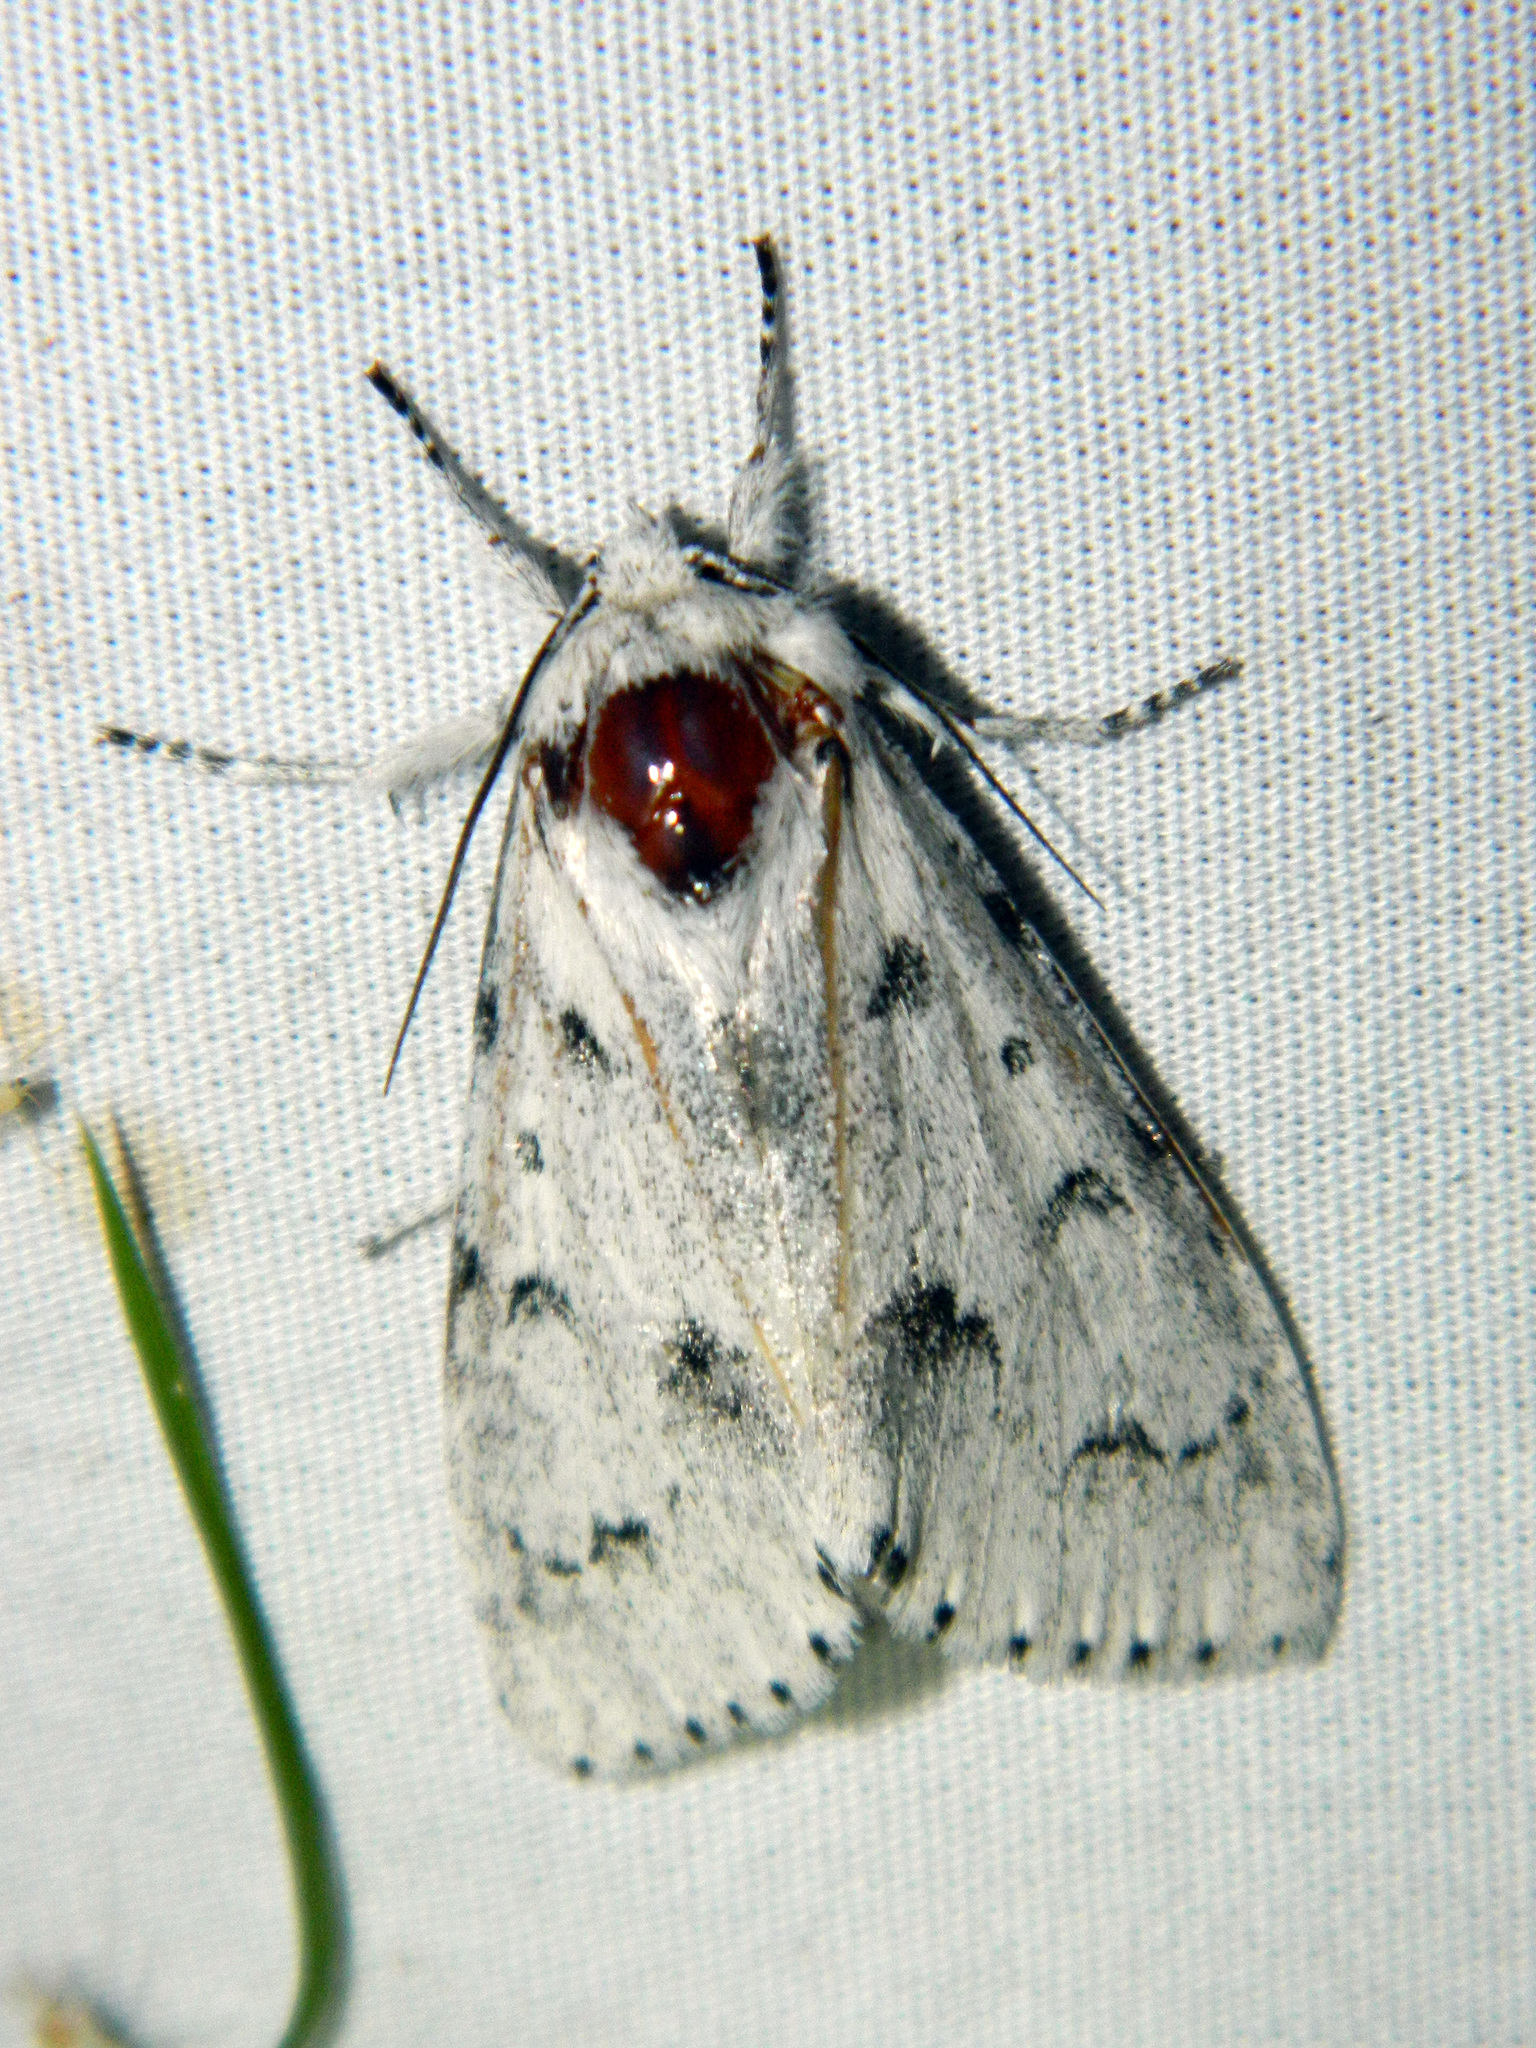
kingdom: Animalia
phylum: Arthropoda
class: Insecta
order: Lepidoptera
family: Noctuidae
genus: Acronicta
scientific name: Acronicta vulpina
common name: Miller dagger
